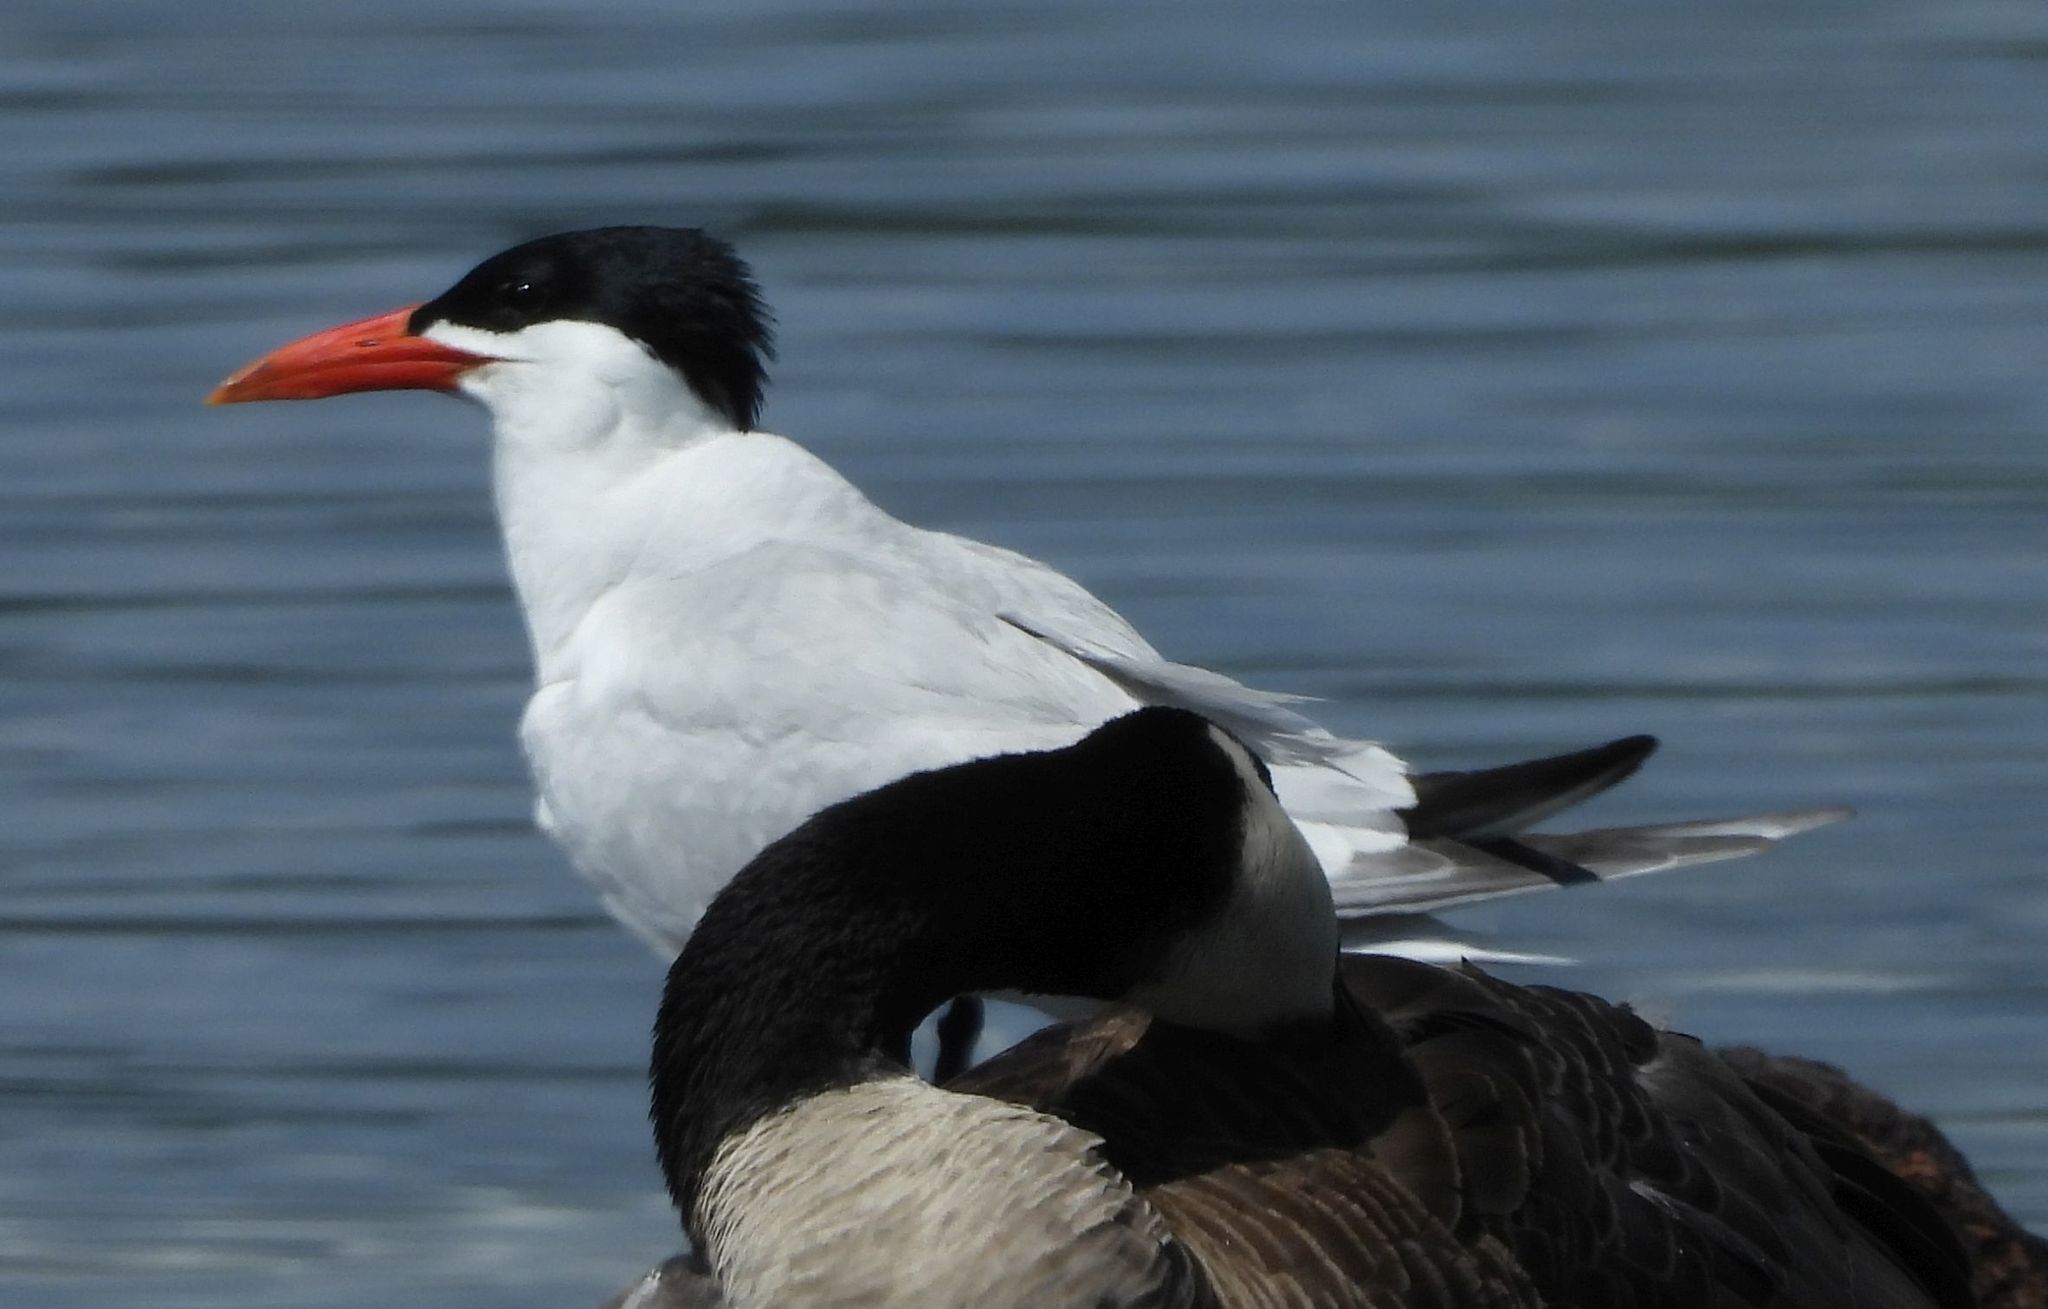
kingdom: Animalia
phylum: Chordata
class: Aves
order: Charadriiformes
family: Laridae
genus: Hydroprogne
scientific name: Hydroprogne caspia
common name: Caspian tern
